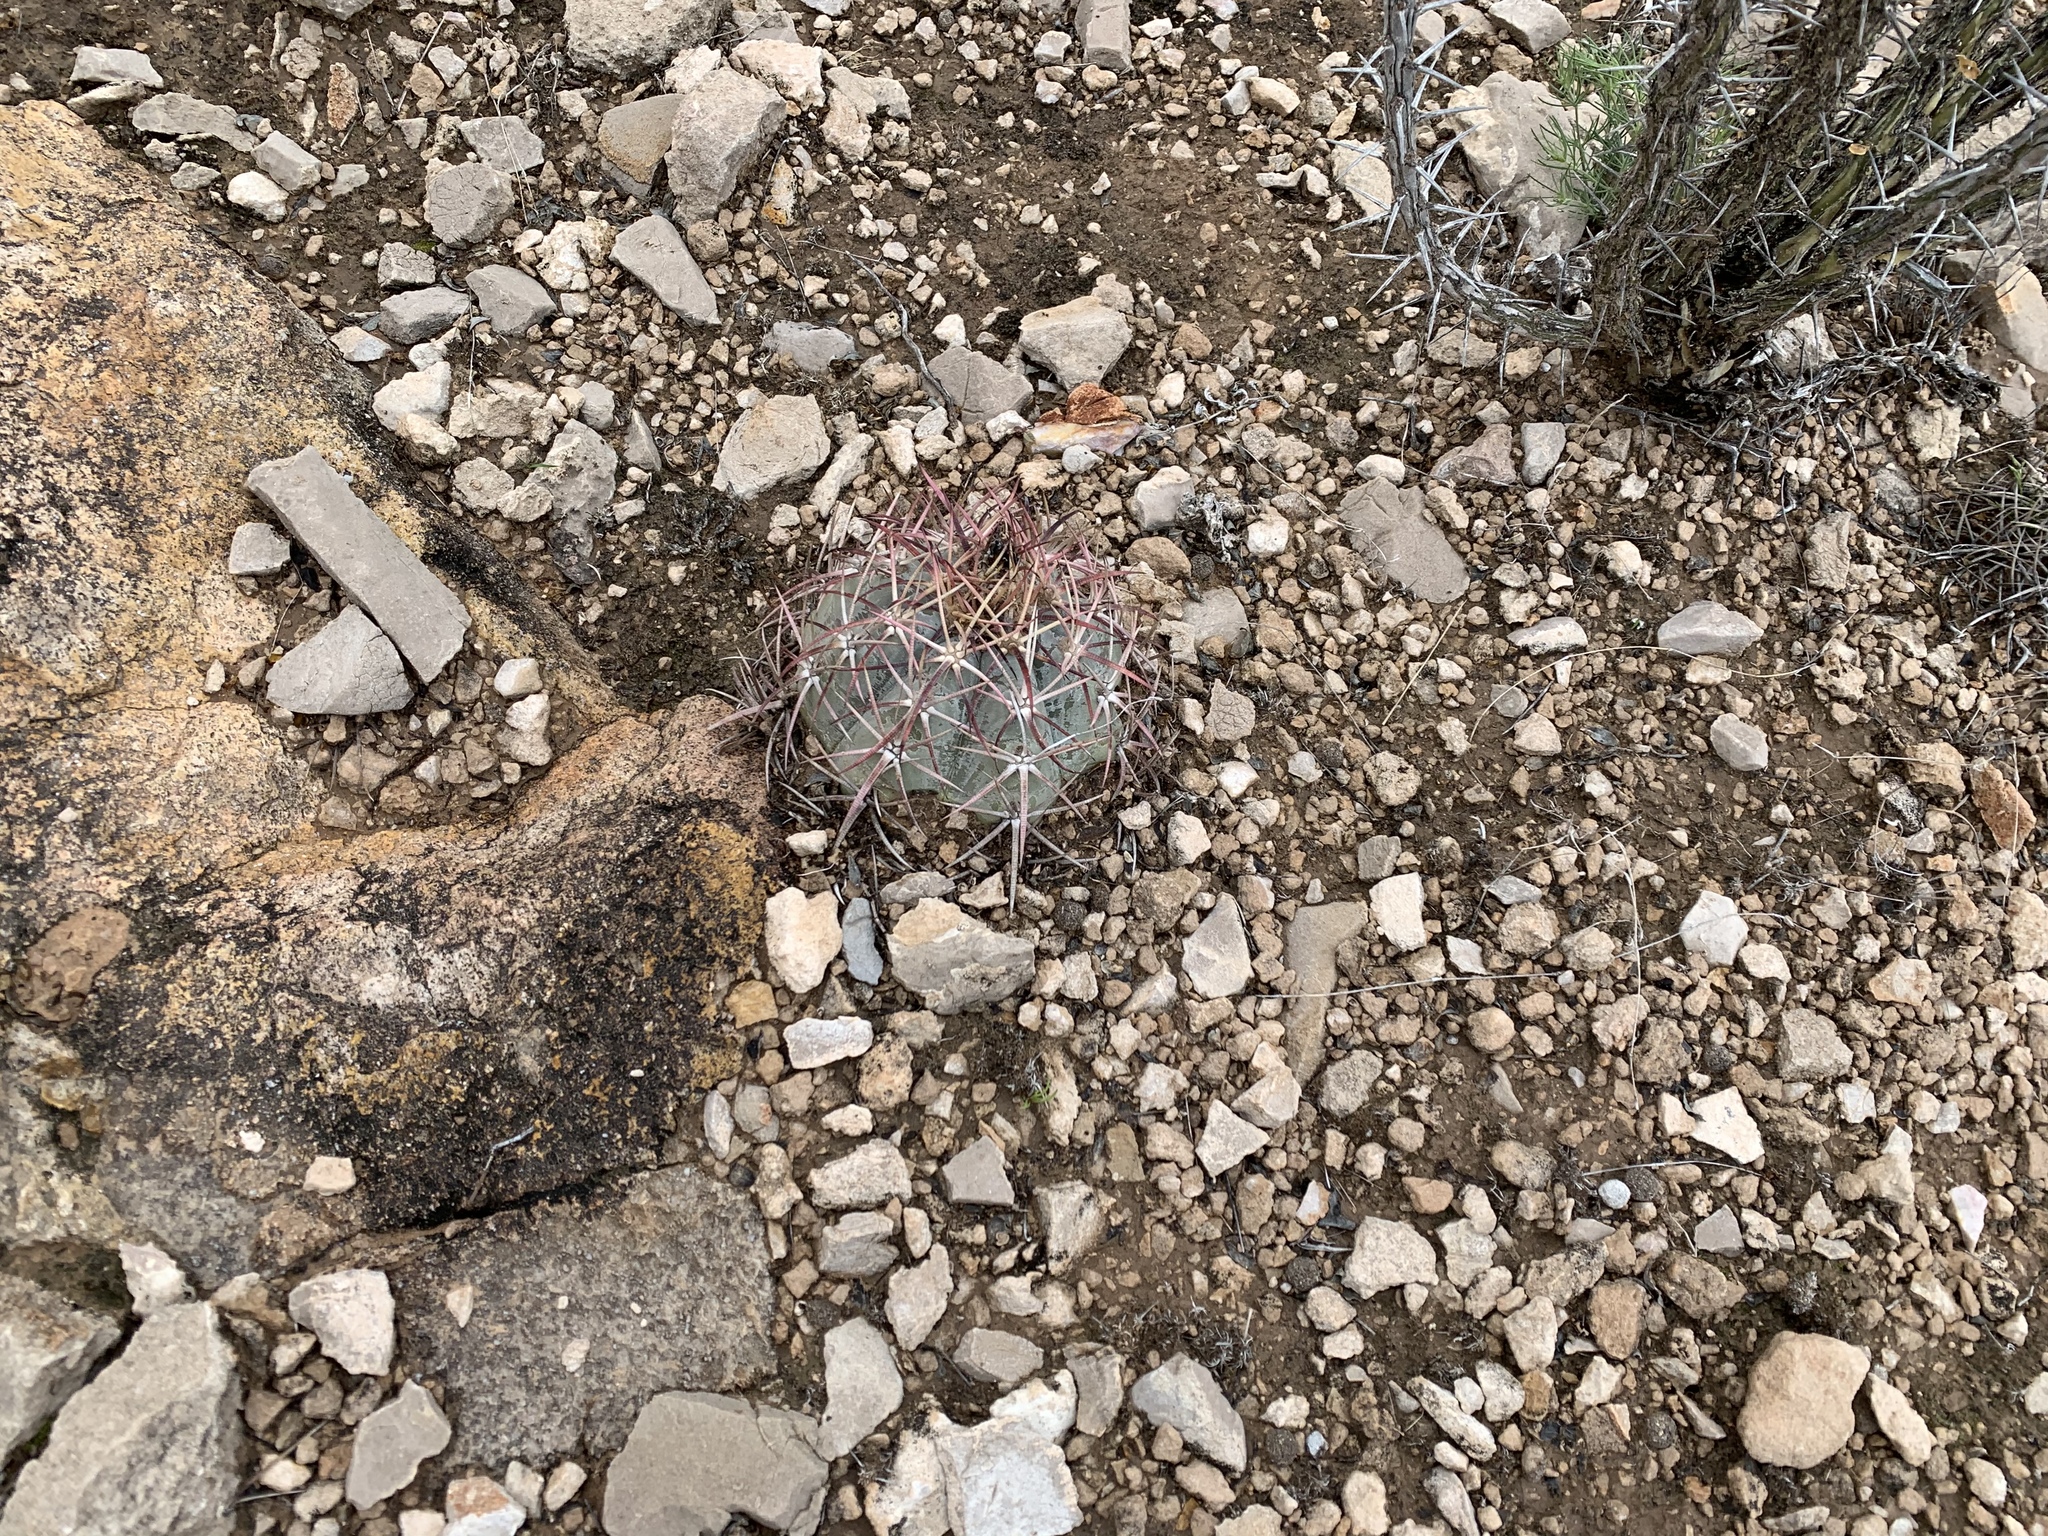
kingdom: Plantae
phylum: Tracheophyta
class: Magnoliopsida
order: Caryophyllales
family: Cactaceae
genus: Echinocactus
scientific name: Echinocactus horizonthalonius
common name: Devilshead
